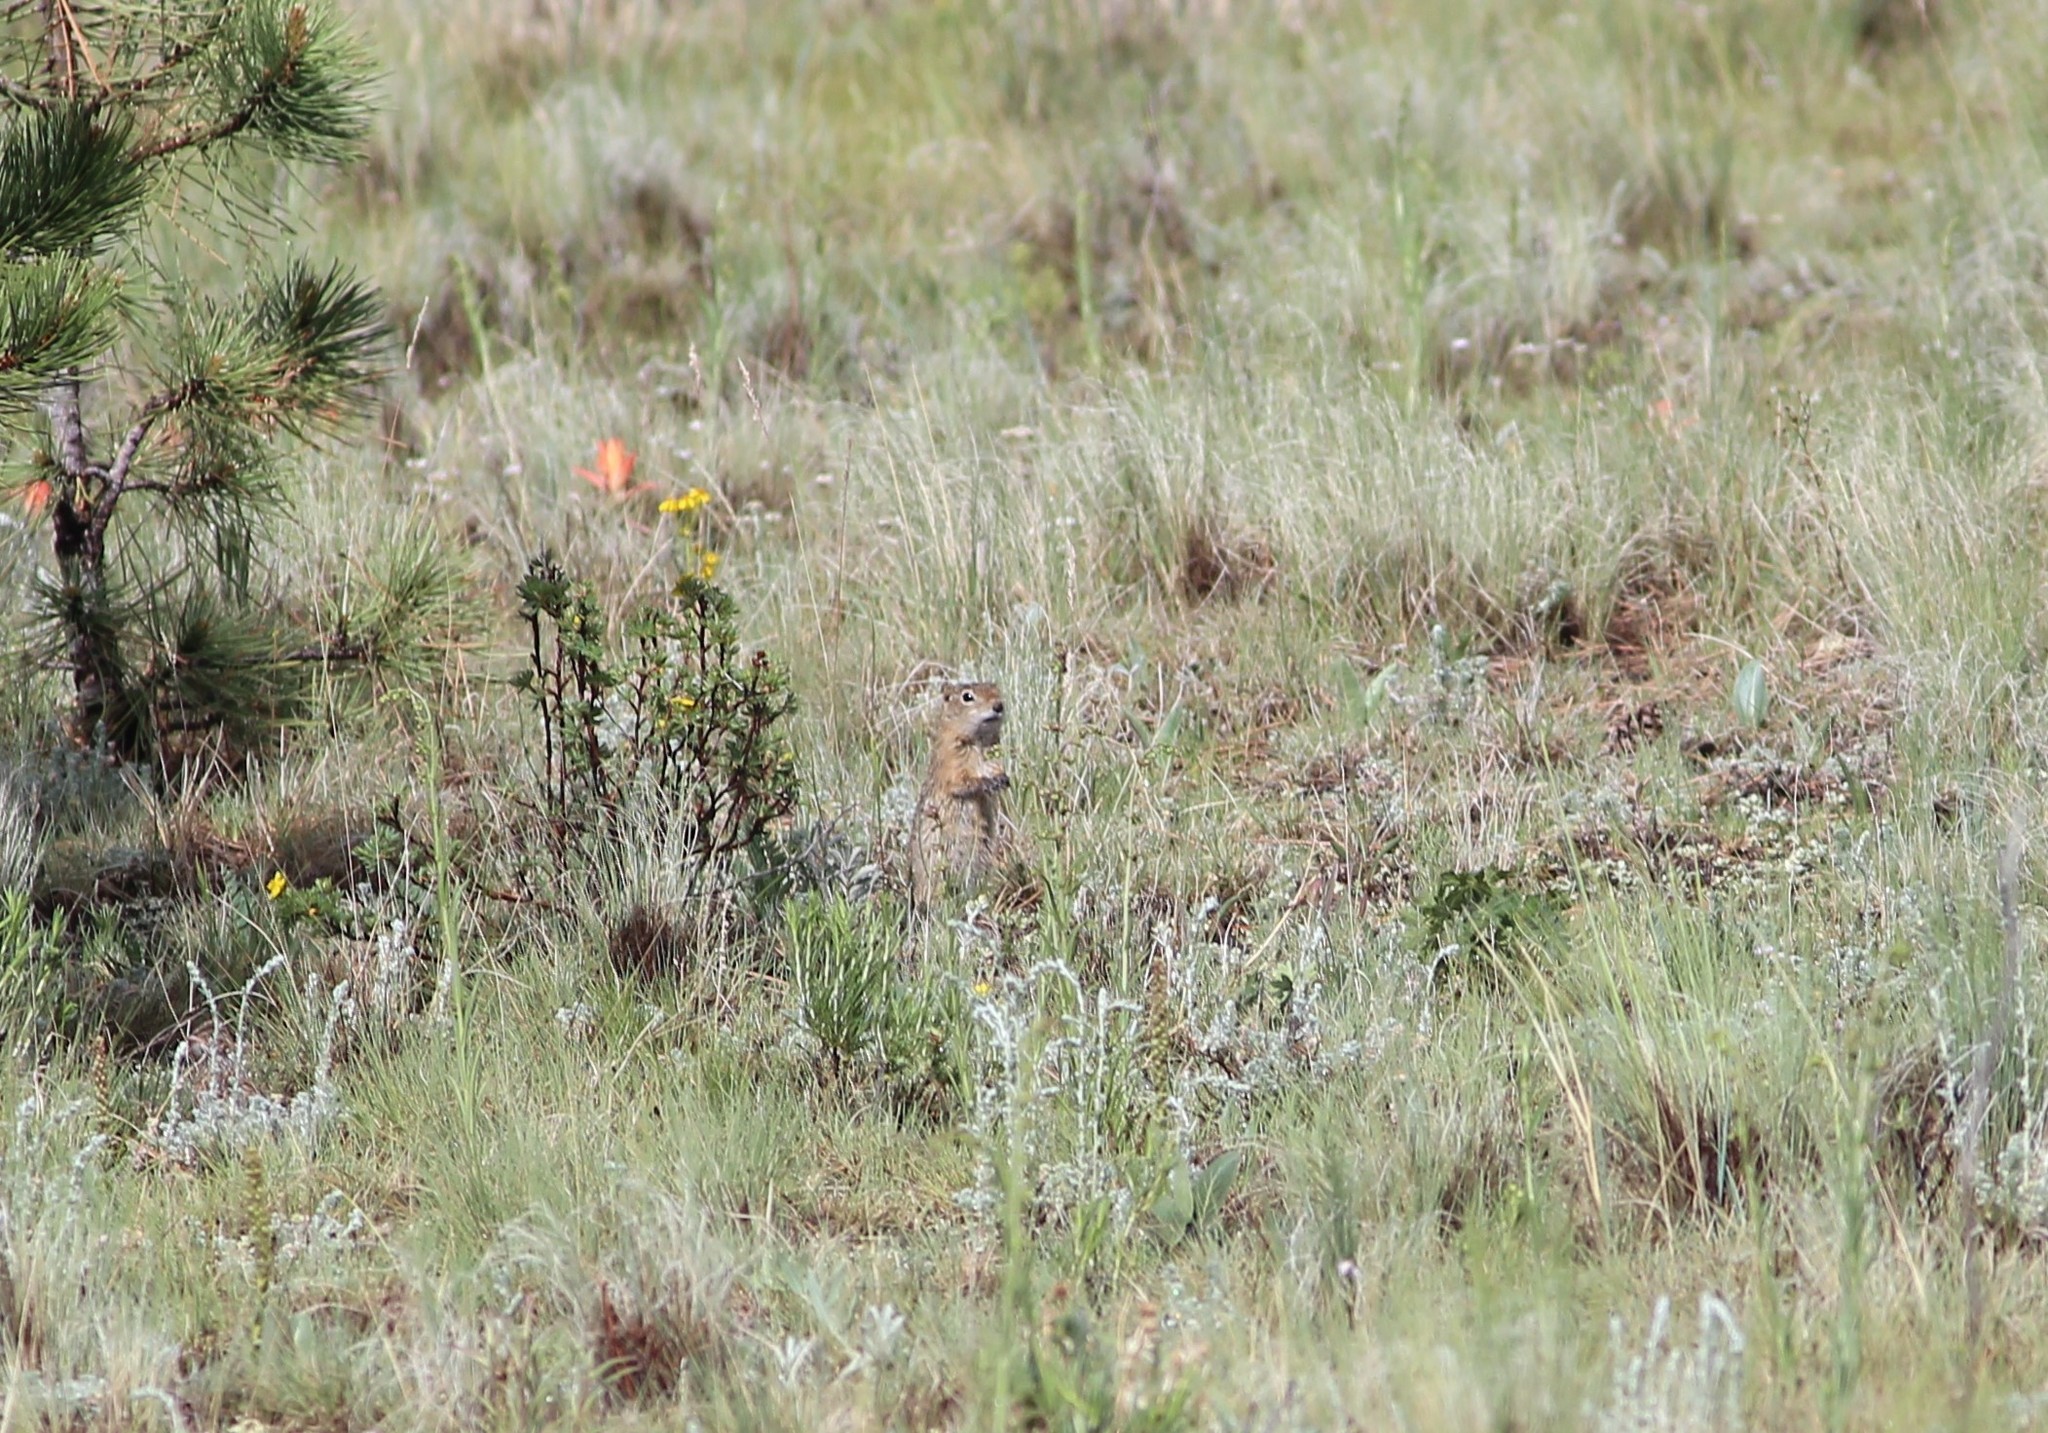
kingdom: Animalia
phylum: Chordata
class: Mammalia
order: Rodentia
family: Sciuridae
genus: Urocitellus
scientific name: Urocitellus elegans
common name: Wyoming ground squirrel
